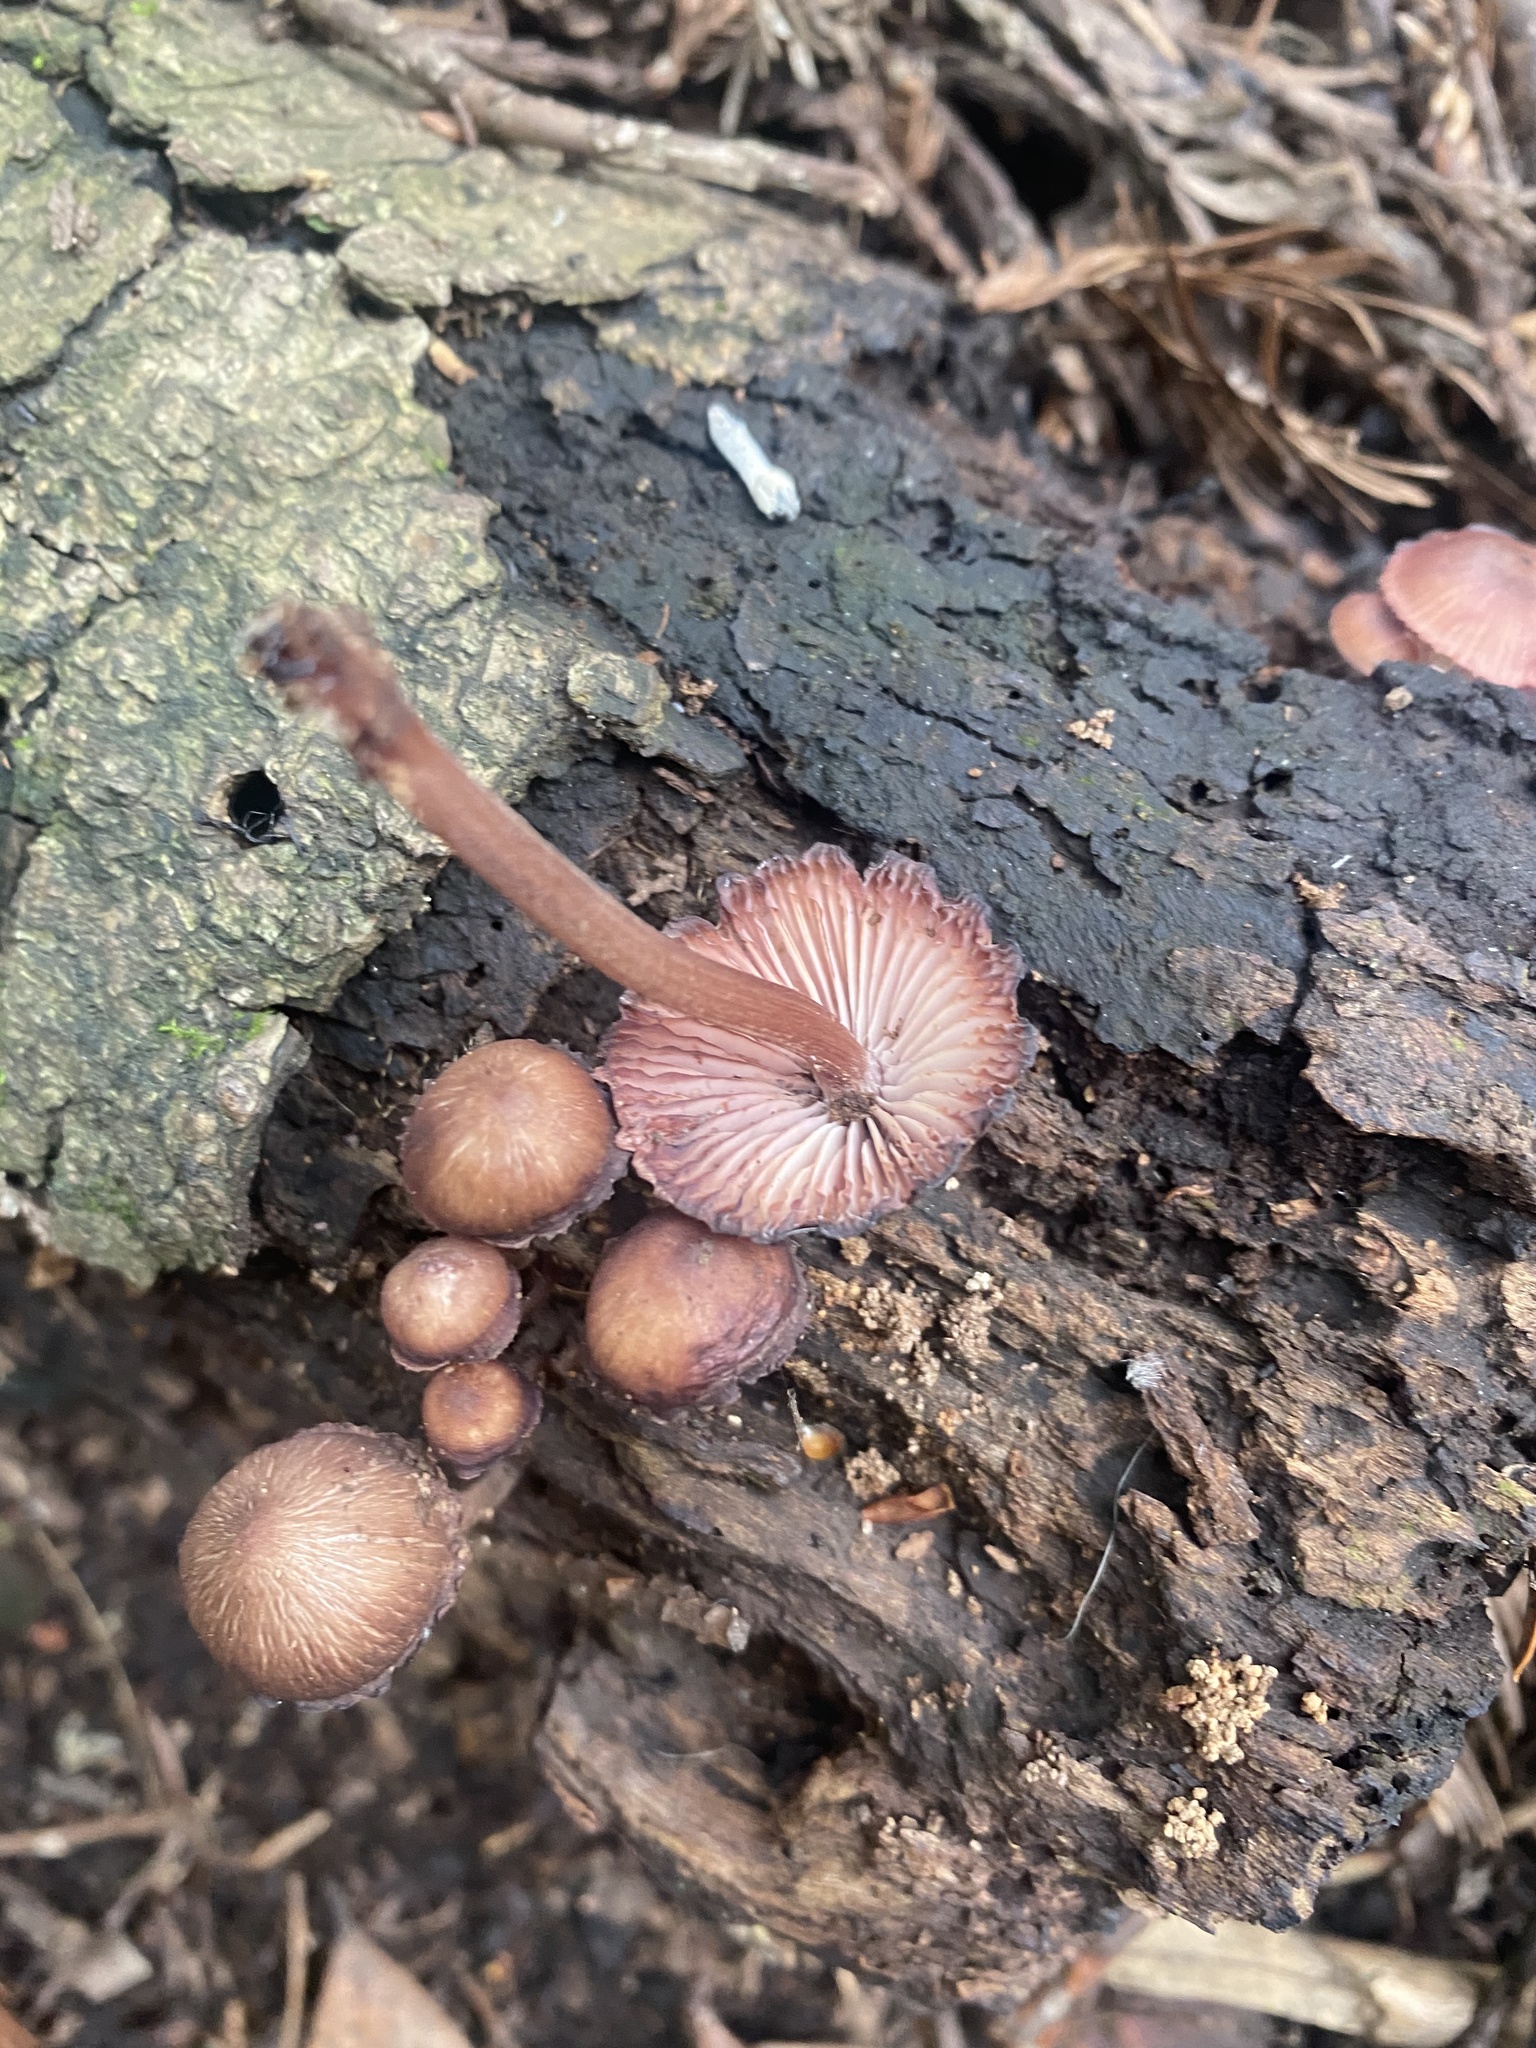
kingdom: Fungi
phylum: Basidiomycota
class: Agaricomycetes
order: Agaricales
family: Mycenaceae
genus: Mycena
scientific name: Mycena haematopus
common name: Burgundydrop bonnet
